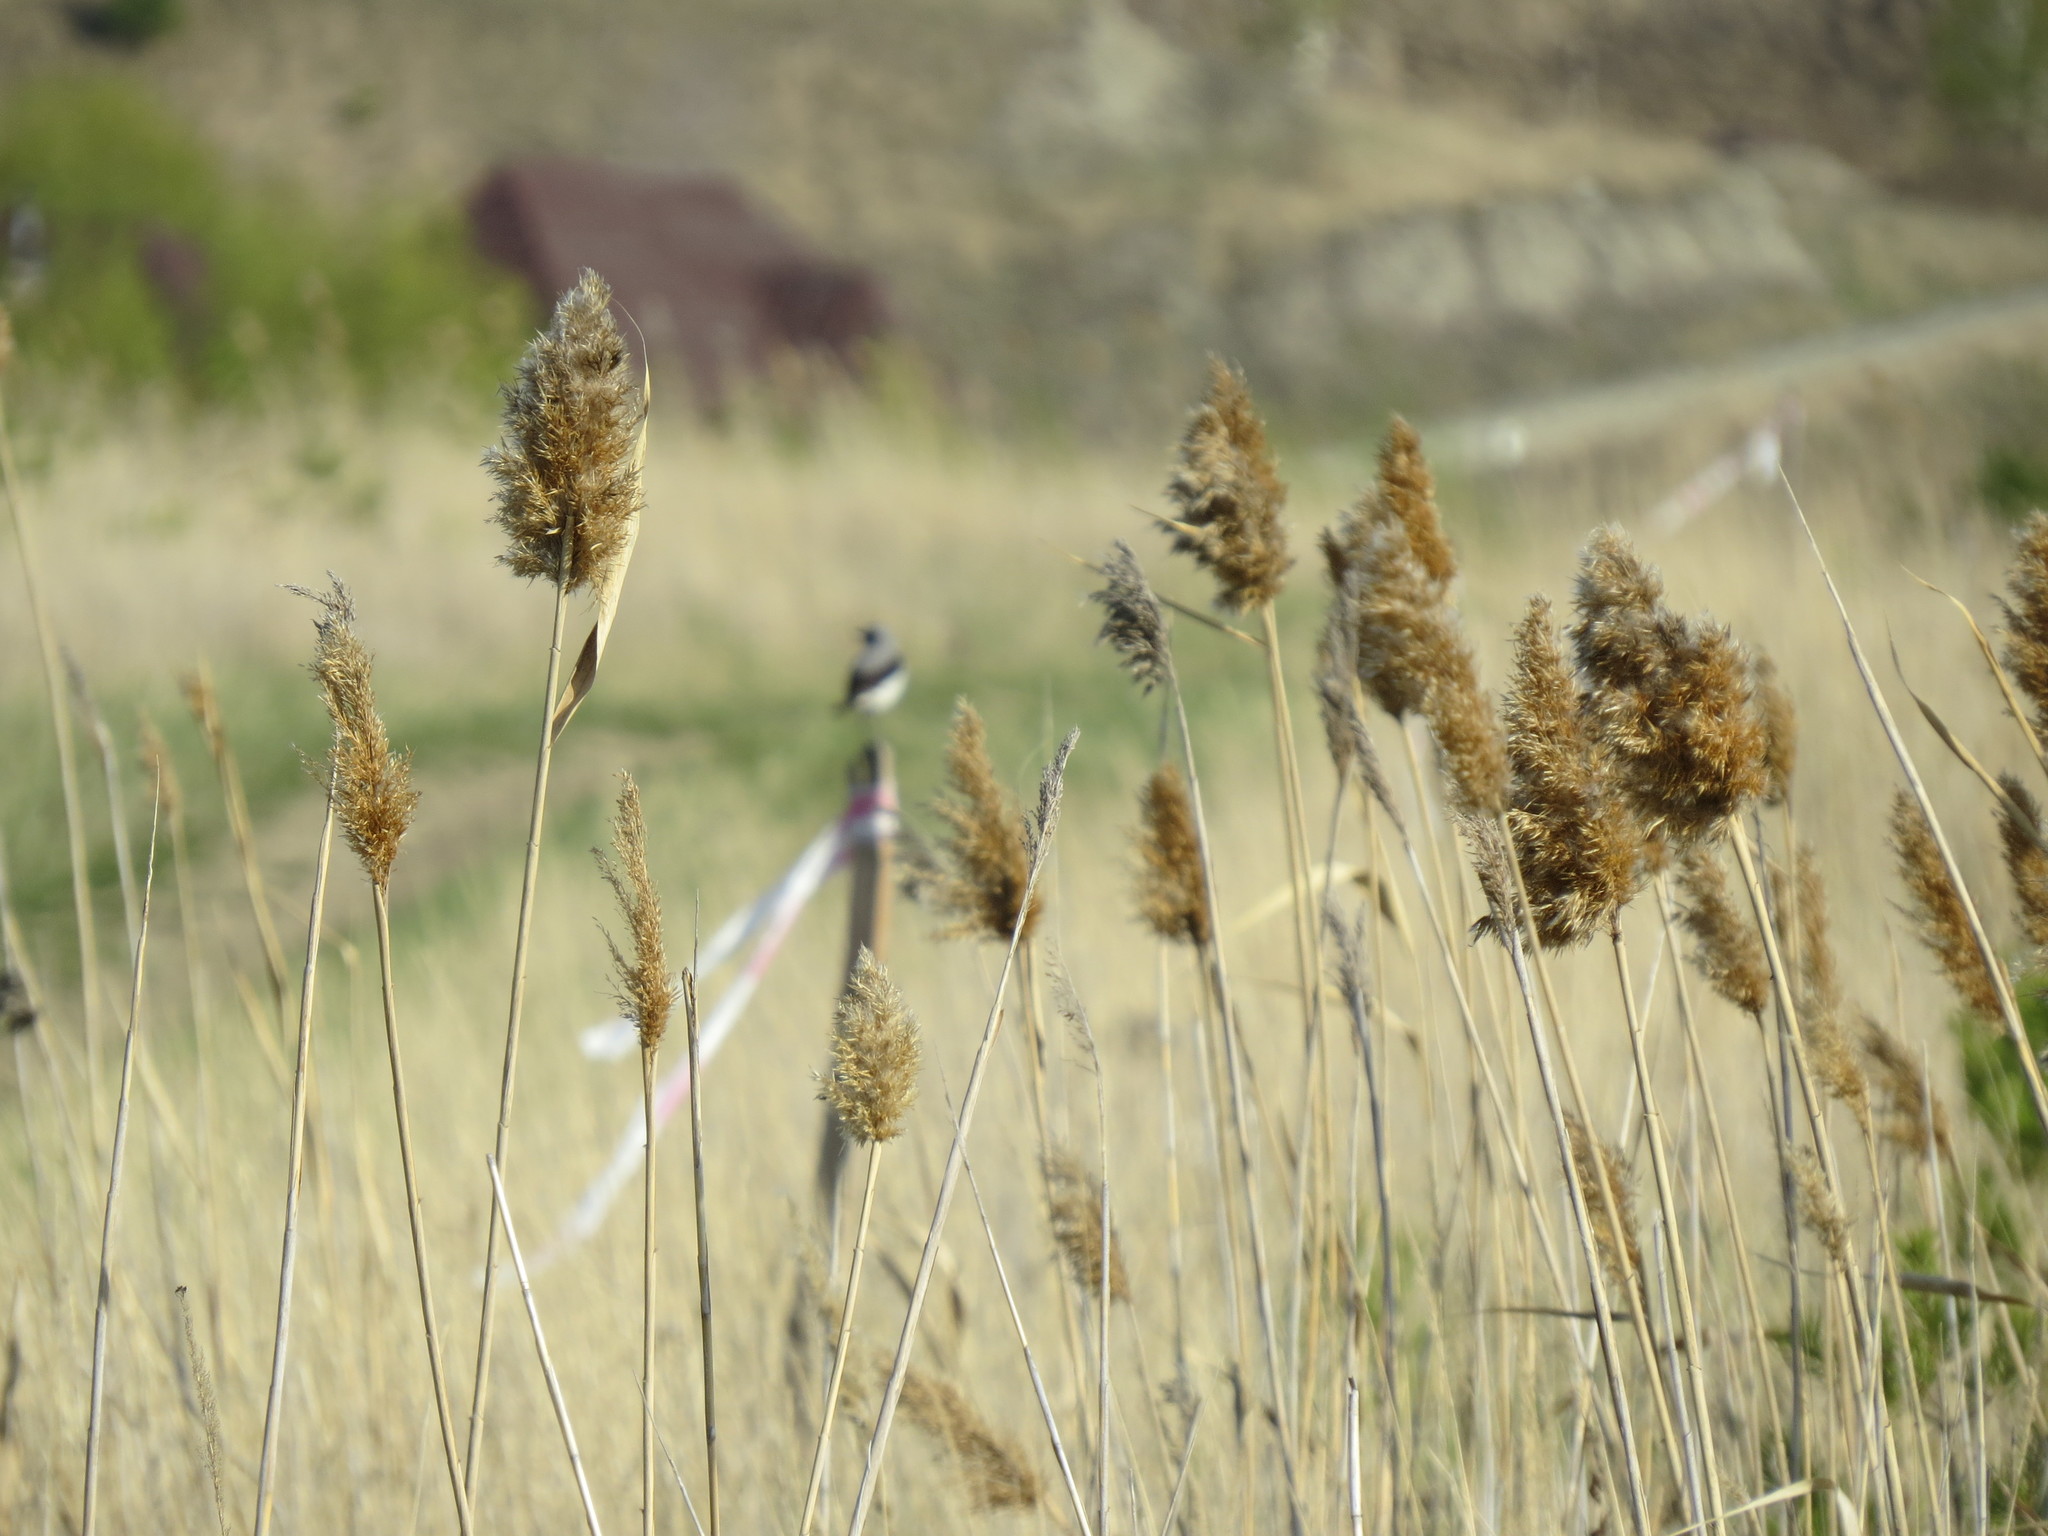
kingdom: Animalia
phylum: Chordata
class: Aves
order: Passeriformes
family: Muscicapidae
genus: Oenanthe
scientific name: Oenanthe oenanthe
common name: Northern wheatear
